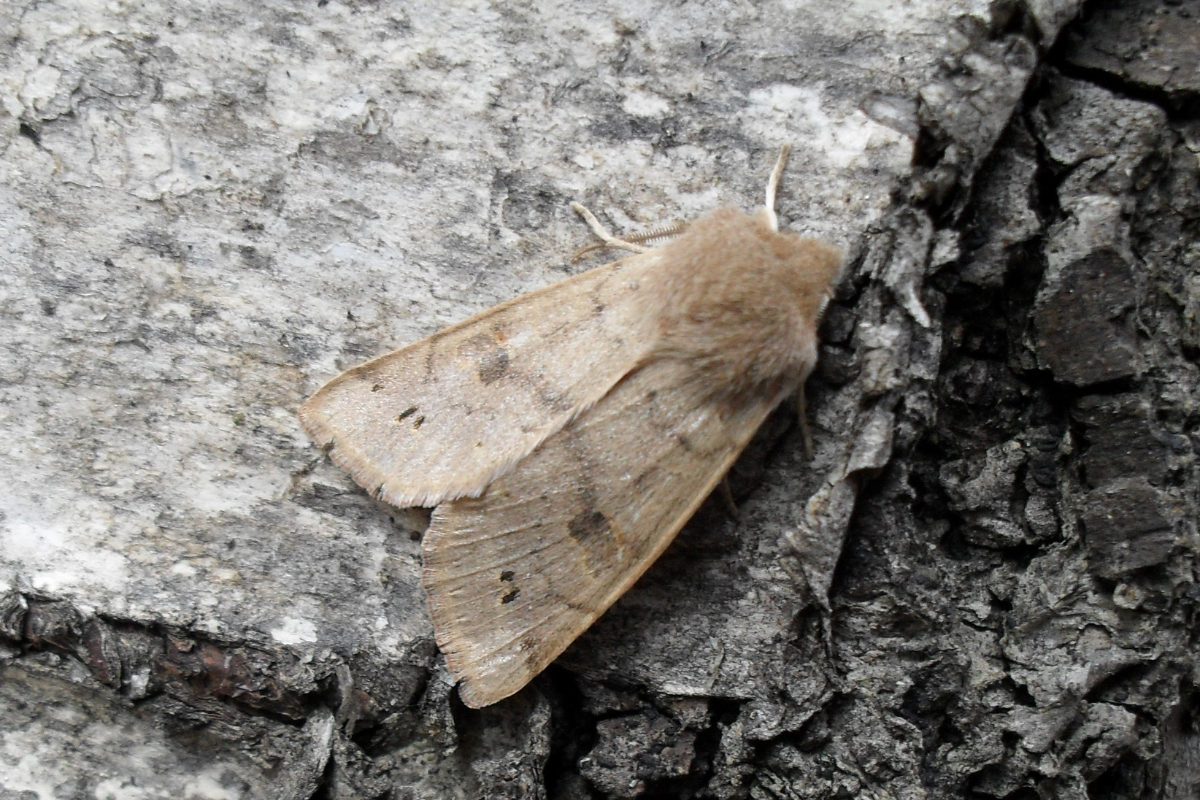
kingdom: Animalia
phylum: Arthropoda
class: Insecta
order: Lepidoptera
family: Noctuidae
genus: Anorthoa
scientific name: Anorthoa munda
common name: Twin-spotted quaker
